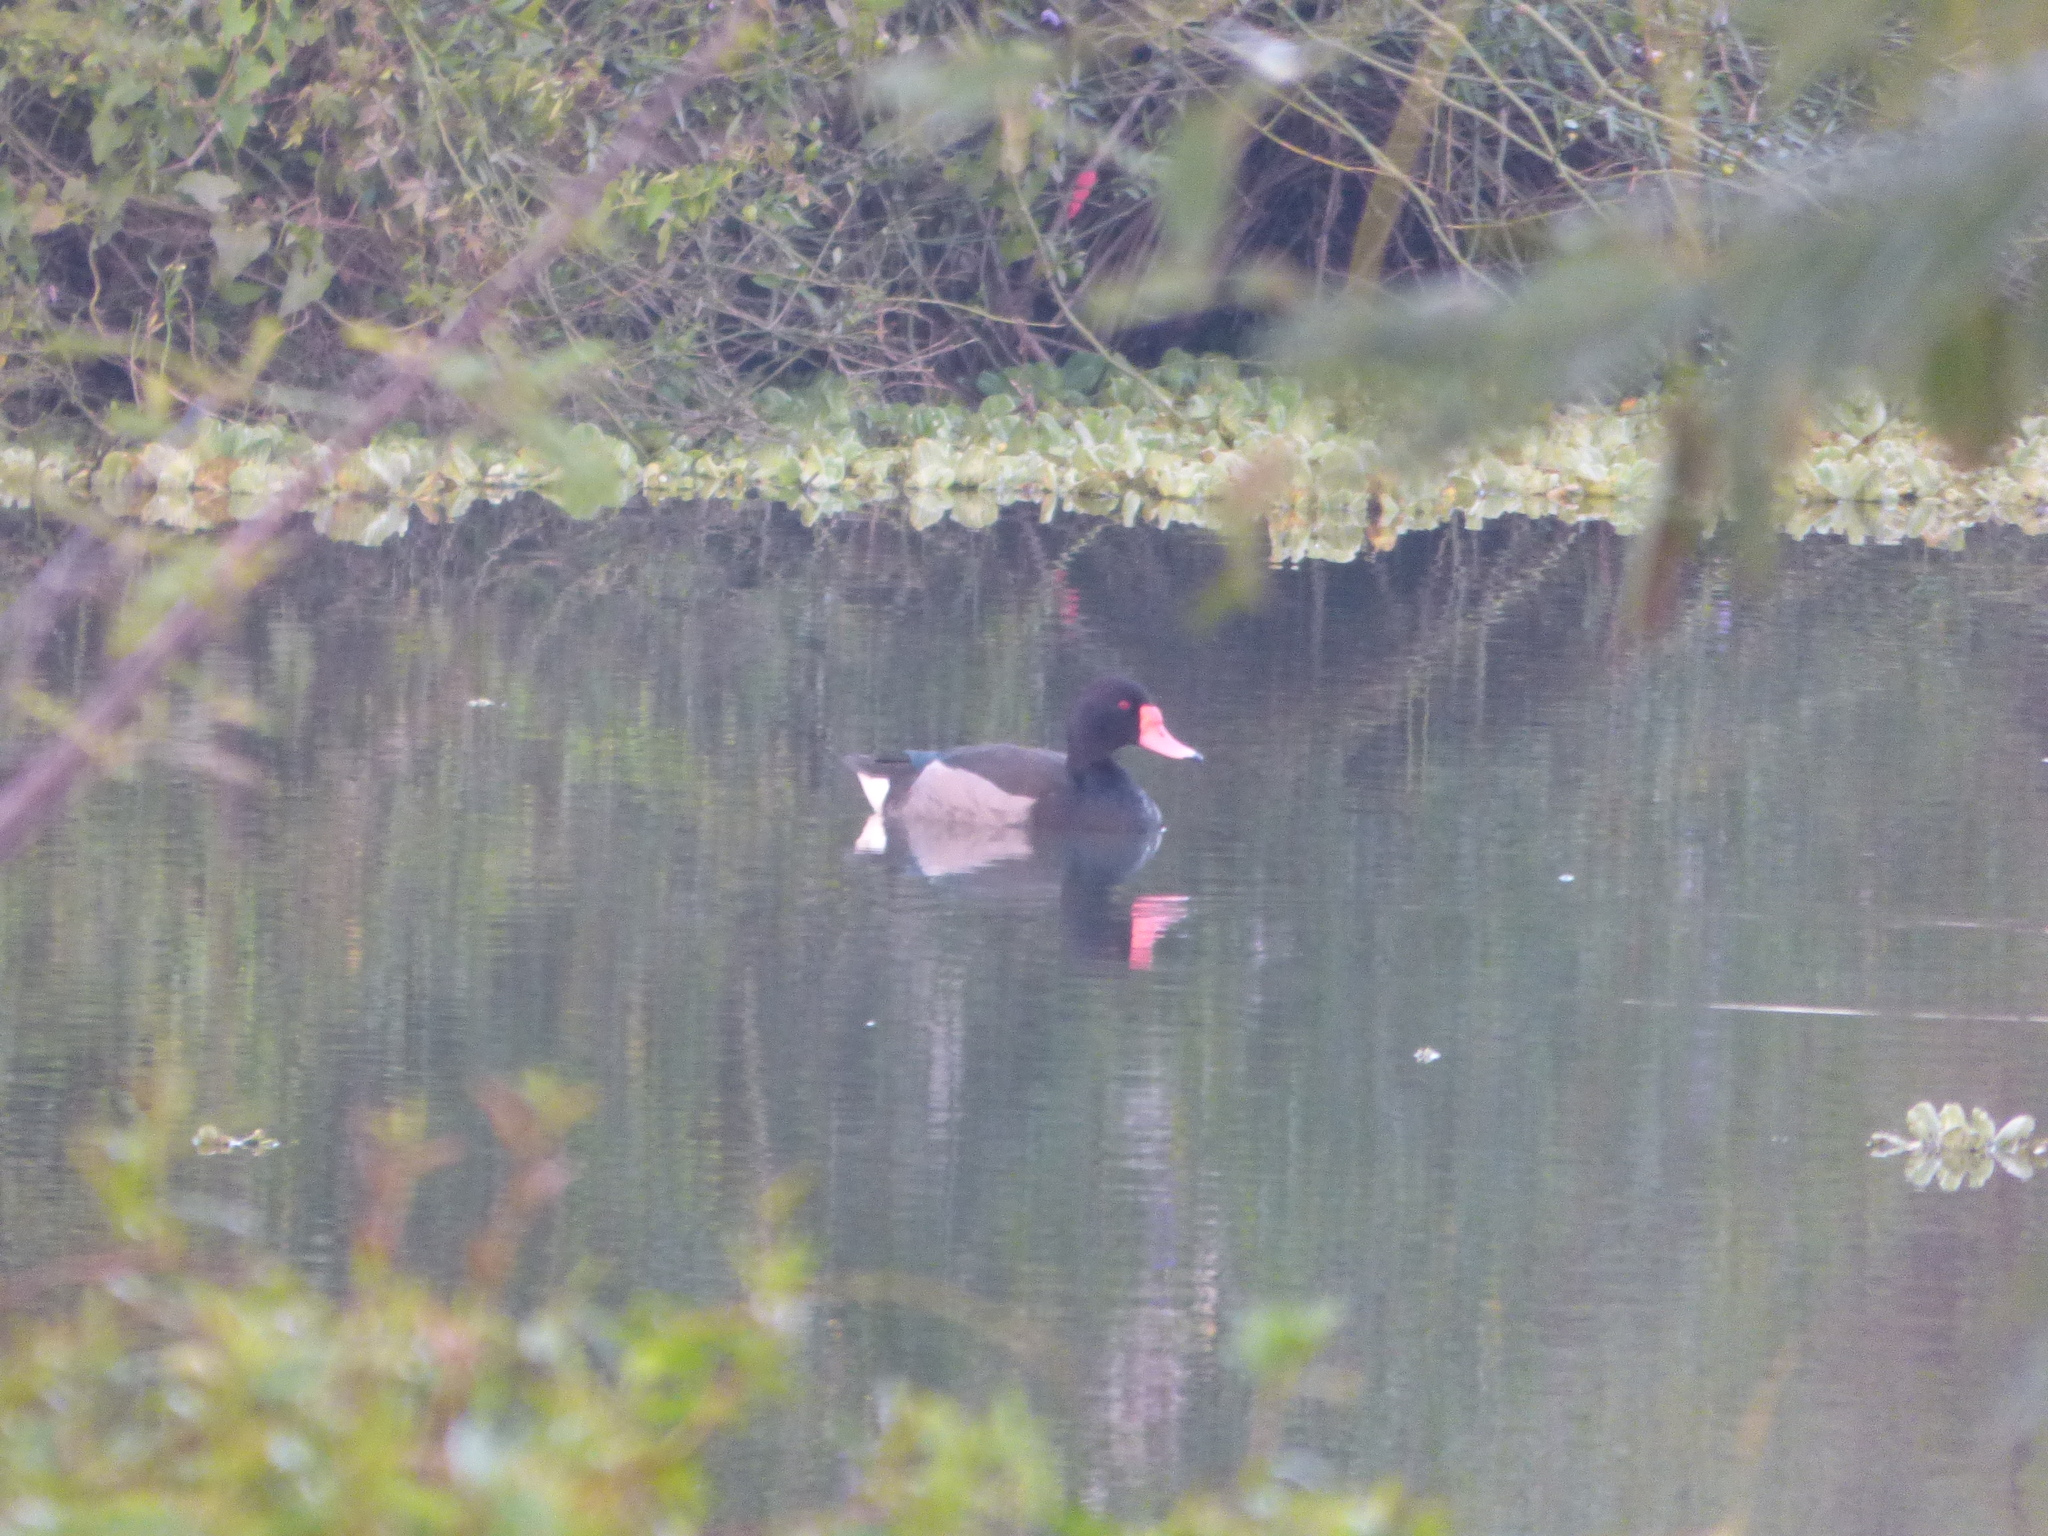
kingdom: Animalia
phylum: Chordata
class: Aves
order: Anseriformes
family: Anatidae
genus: Netta
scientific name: Netta peposaca
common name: Rosy-billed pochard
